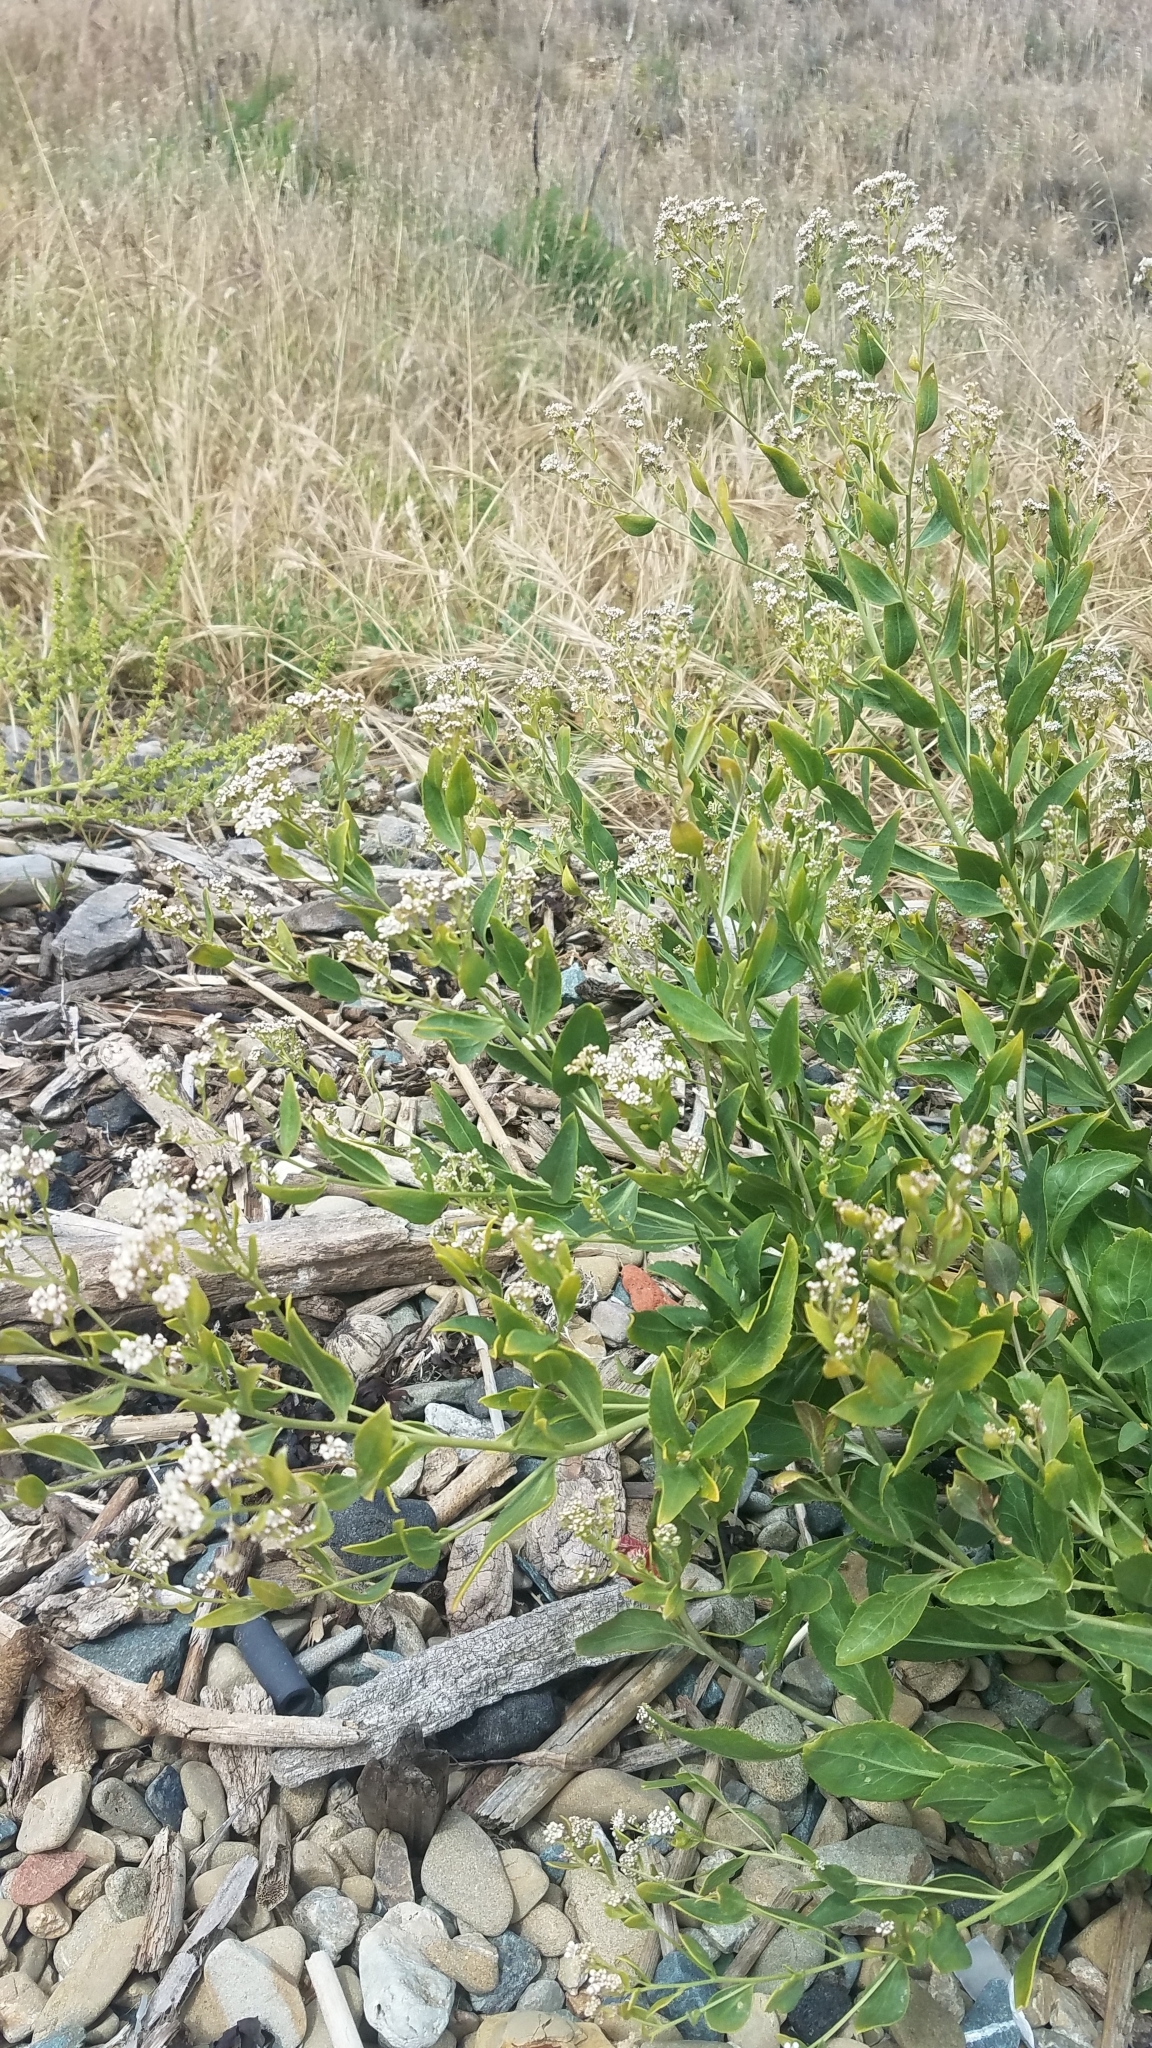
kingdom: Plantae
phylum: Tracheophyta
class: Magnoliopsida
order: Brassicales
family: Brassicaceae
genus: Lepidium
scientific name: Lepidium latifolium
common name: Dittander
